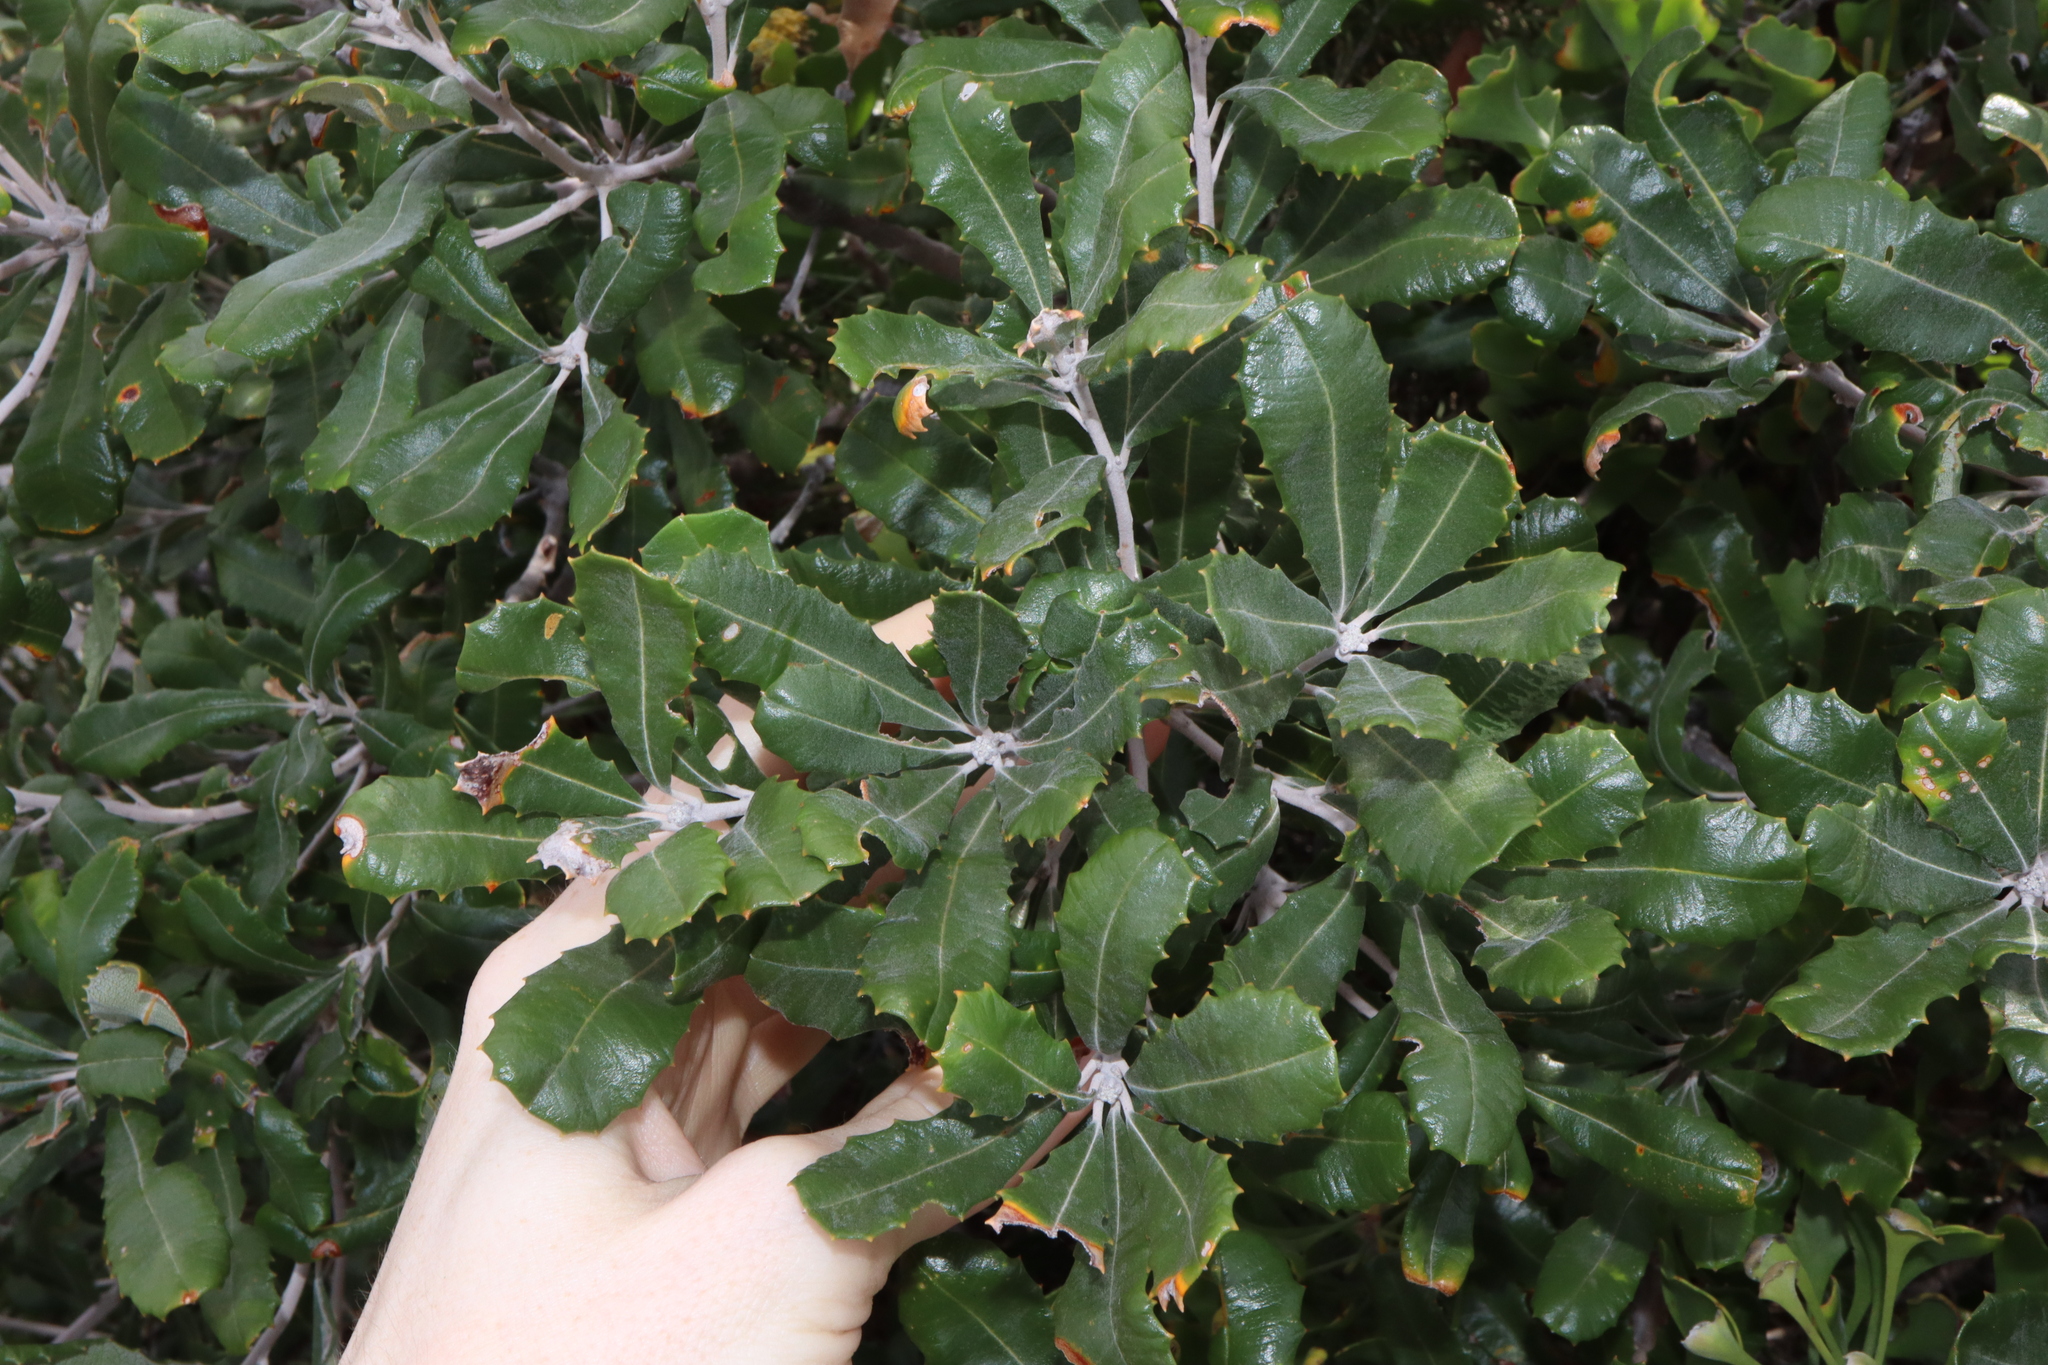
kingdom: Plantae
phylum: Tracheophyta
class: Magnoliopsida
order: Proteales
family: Proteaceae
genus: Banksia
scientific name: Banksia media
